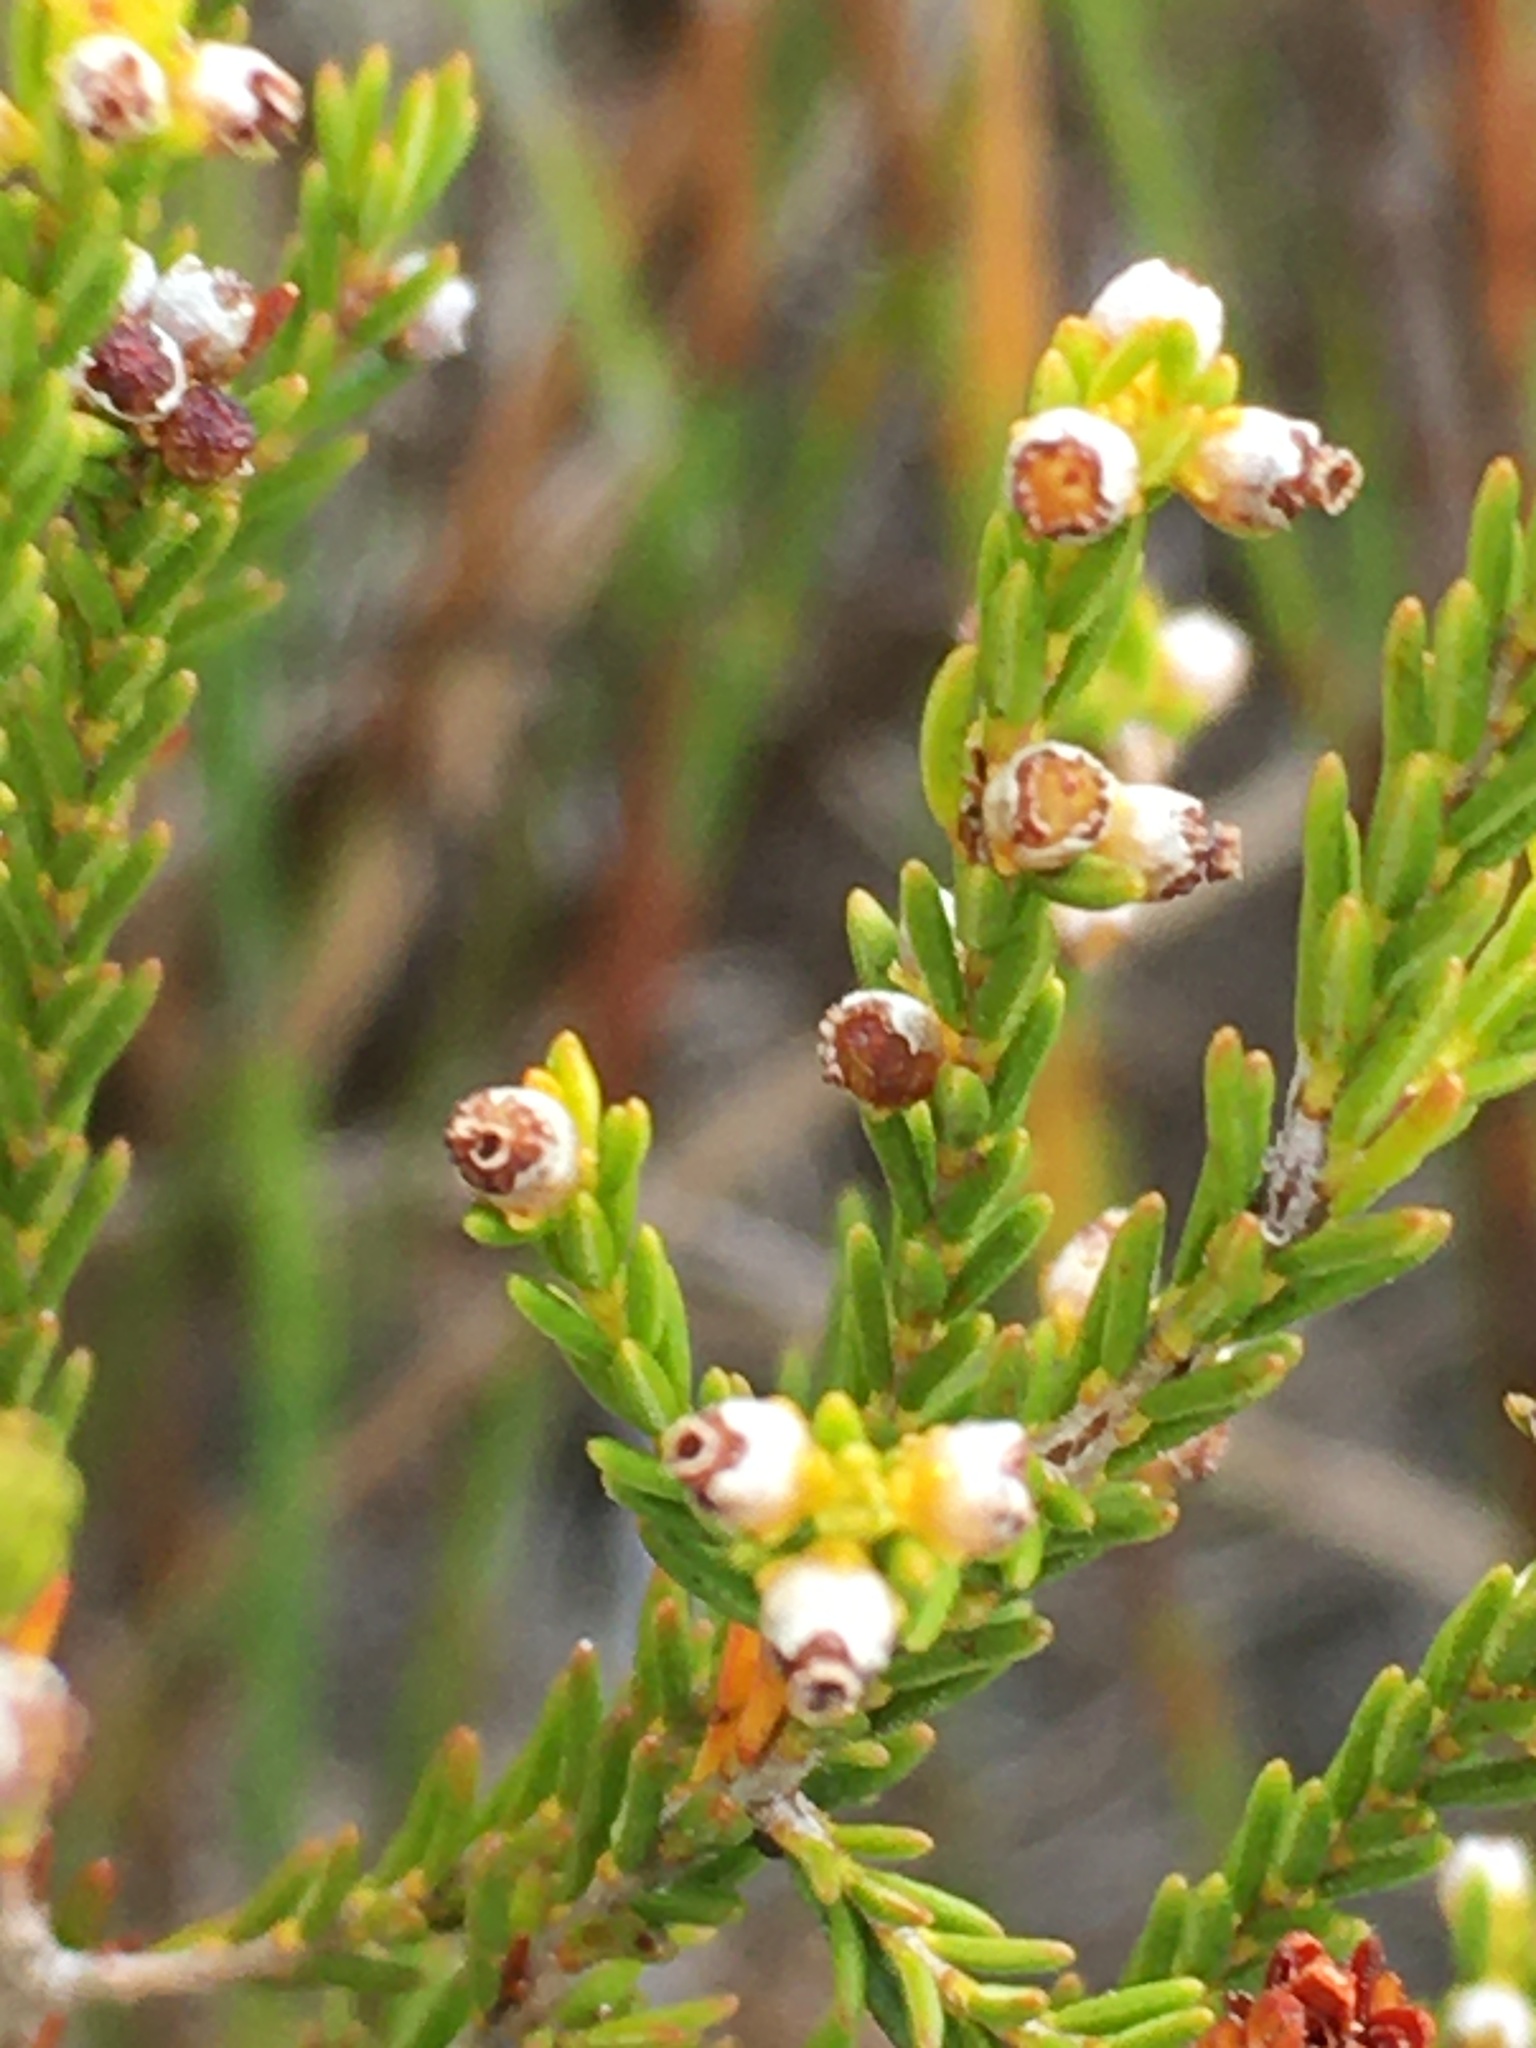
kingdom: Plantae
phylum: Tracheophyta
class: Magnoliopsida
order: Ericales
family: Ericaceae
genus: Erica
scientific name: Erica axillaris
